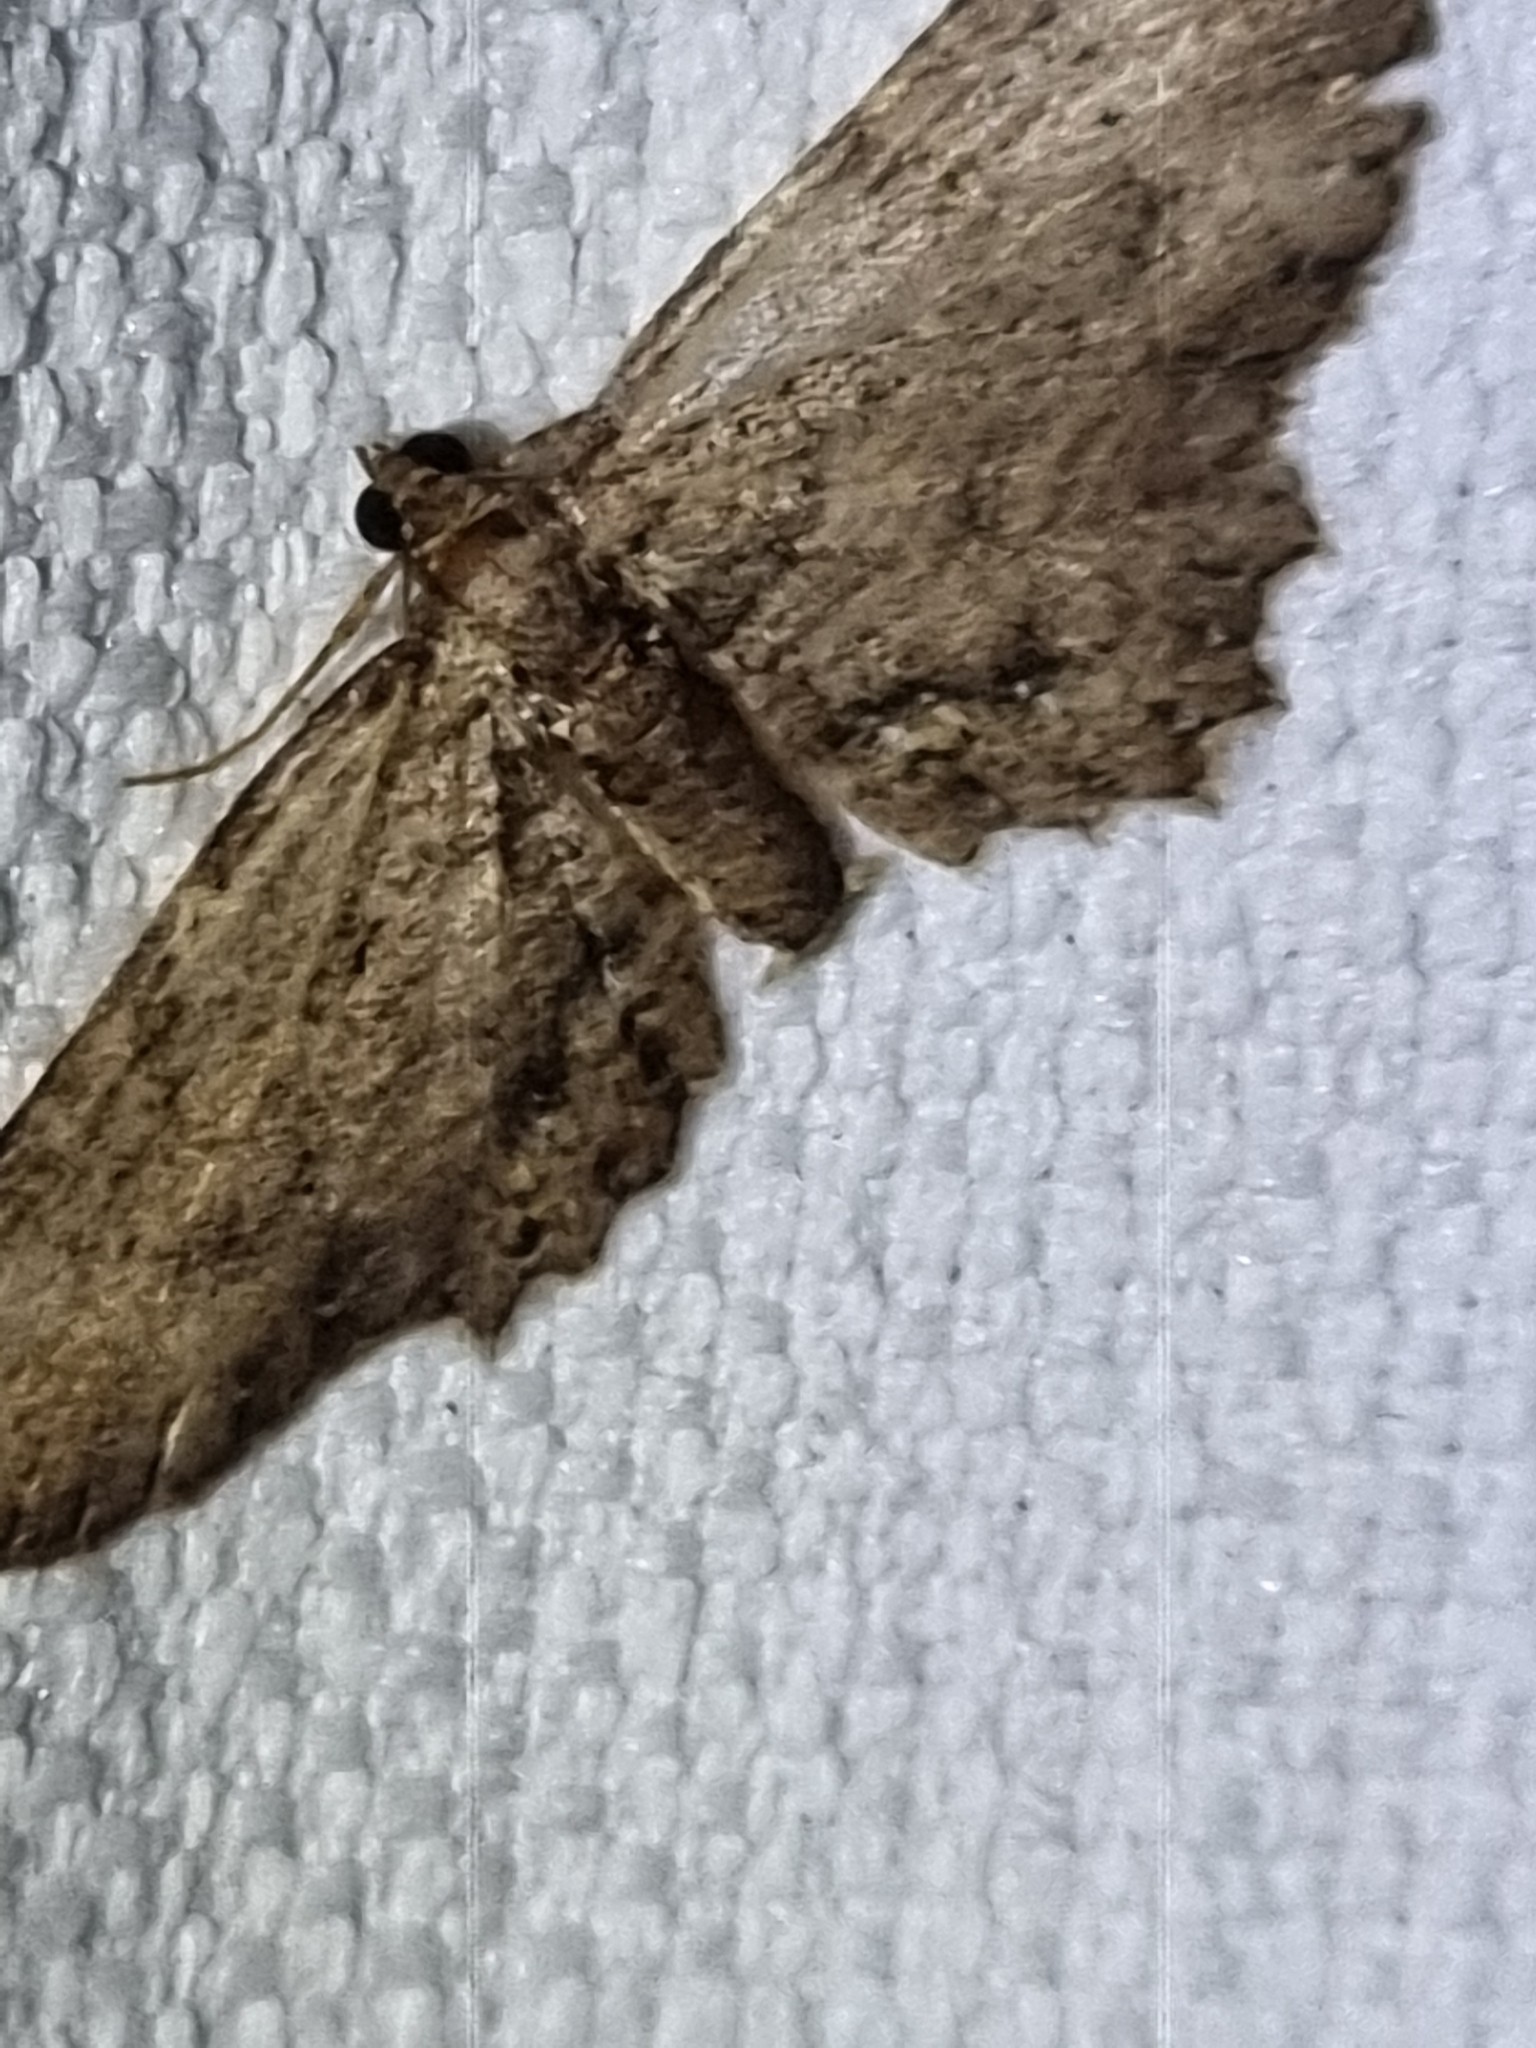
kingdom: Animalia
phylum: Arthropoda
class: Insecta
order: Lepidoptera
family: Geometridae
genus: Eccymatoge
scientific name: Eccymatoge aorista
